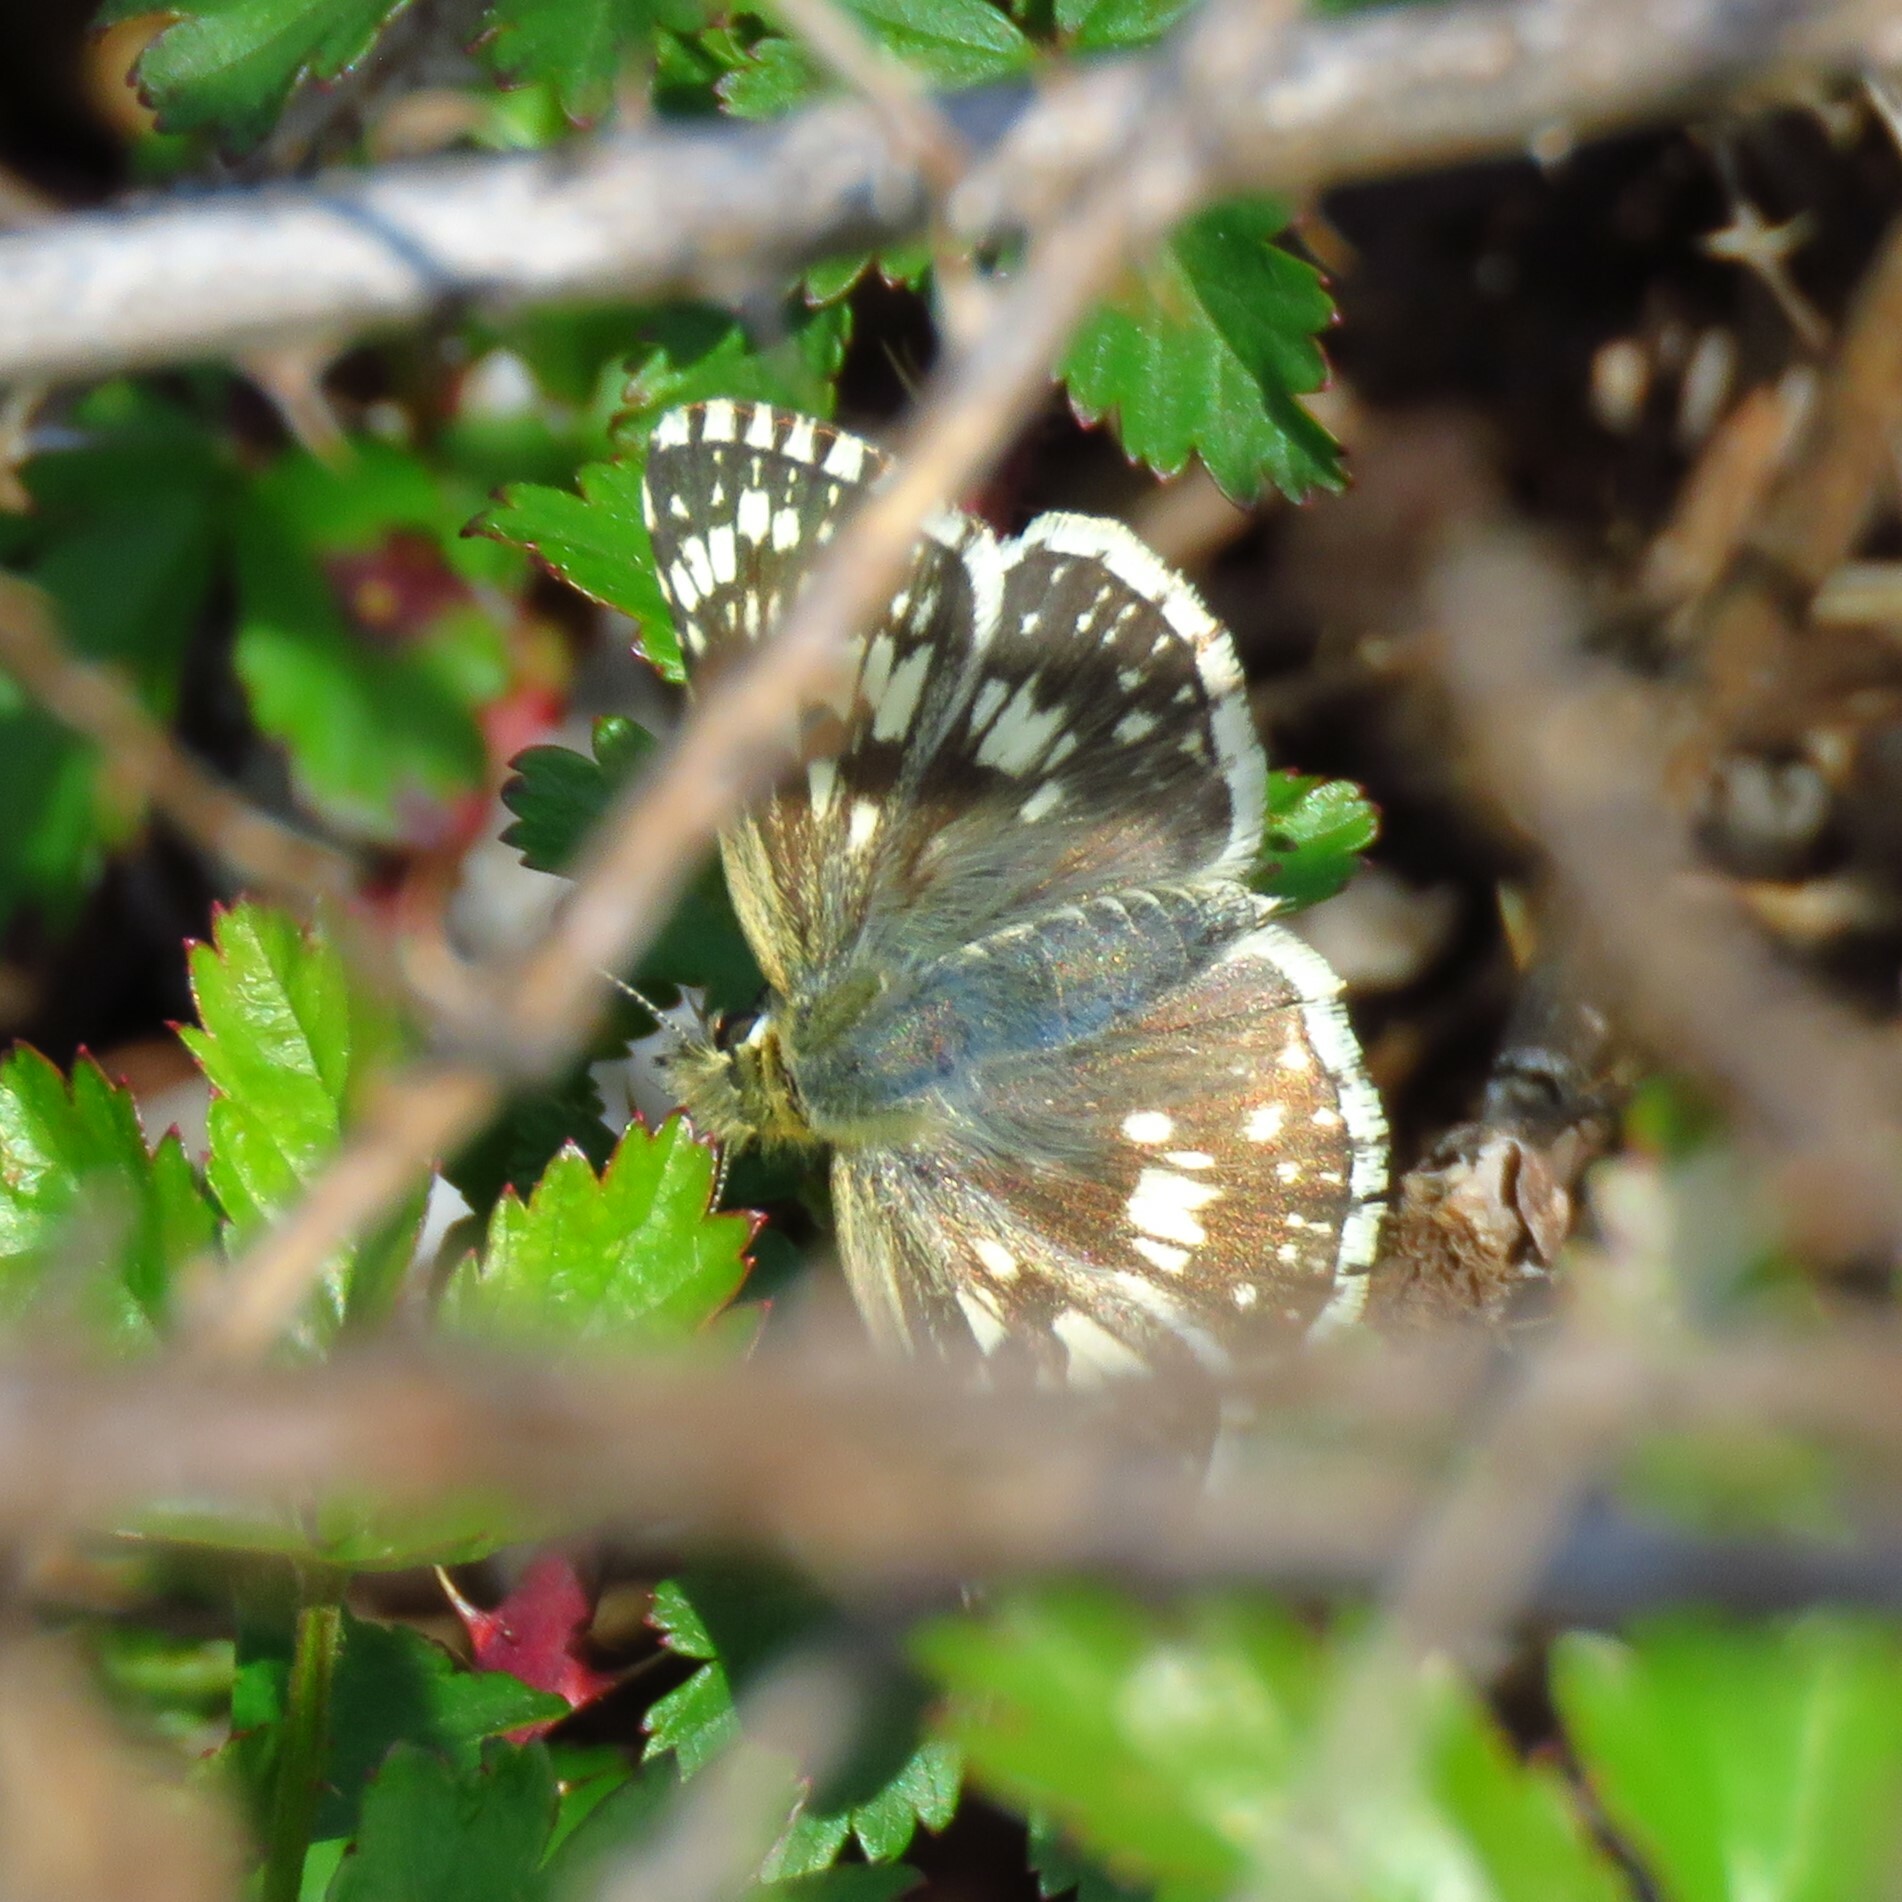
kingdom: Animalia
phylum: Arthropoda
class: Insecta
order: Lepidoptera
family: Hesperiidae
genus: Burnsius
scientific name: Burnsius communis
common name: Common checkered-skipper
